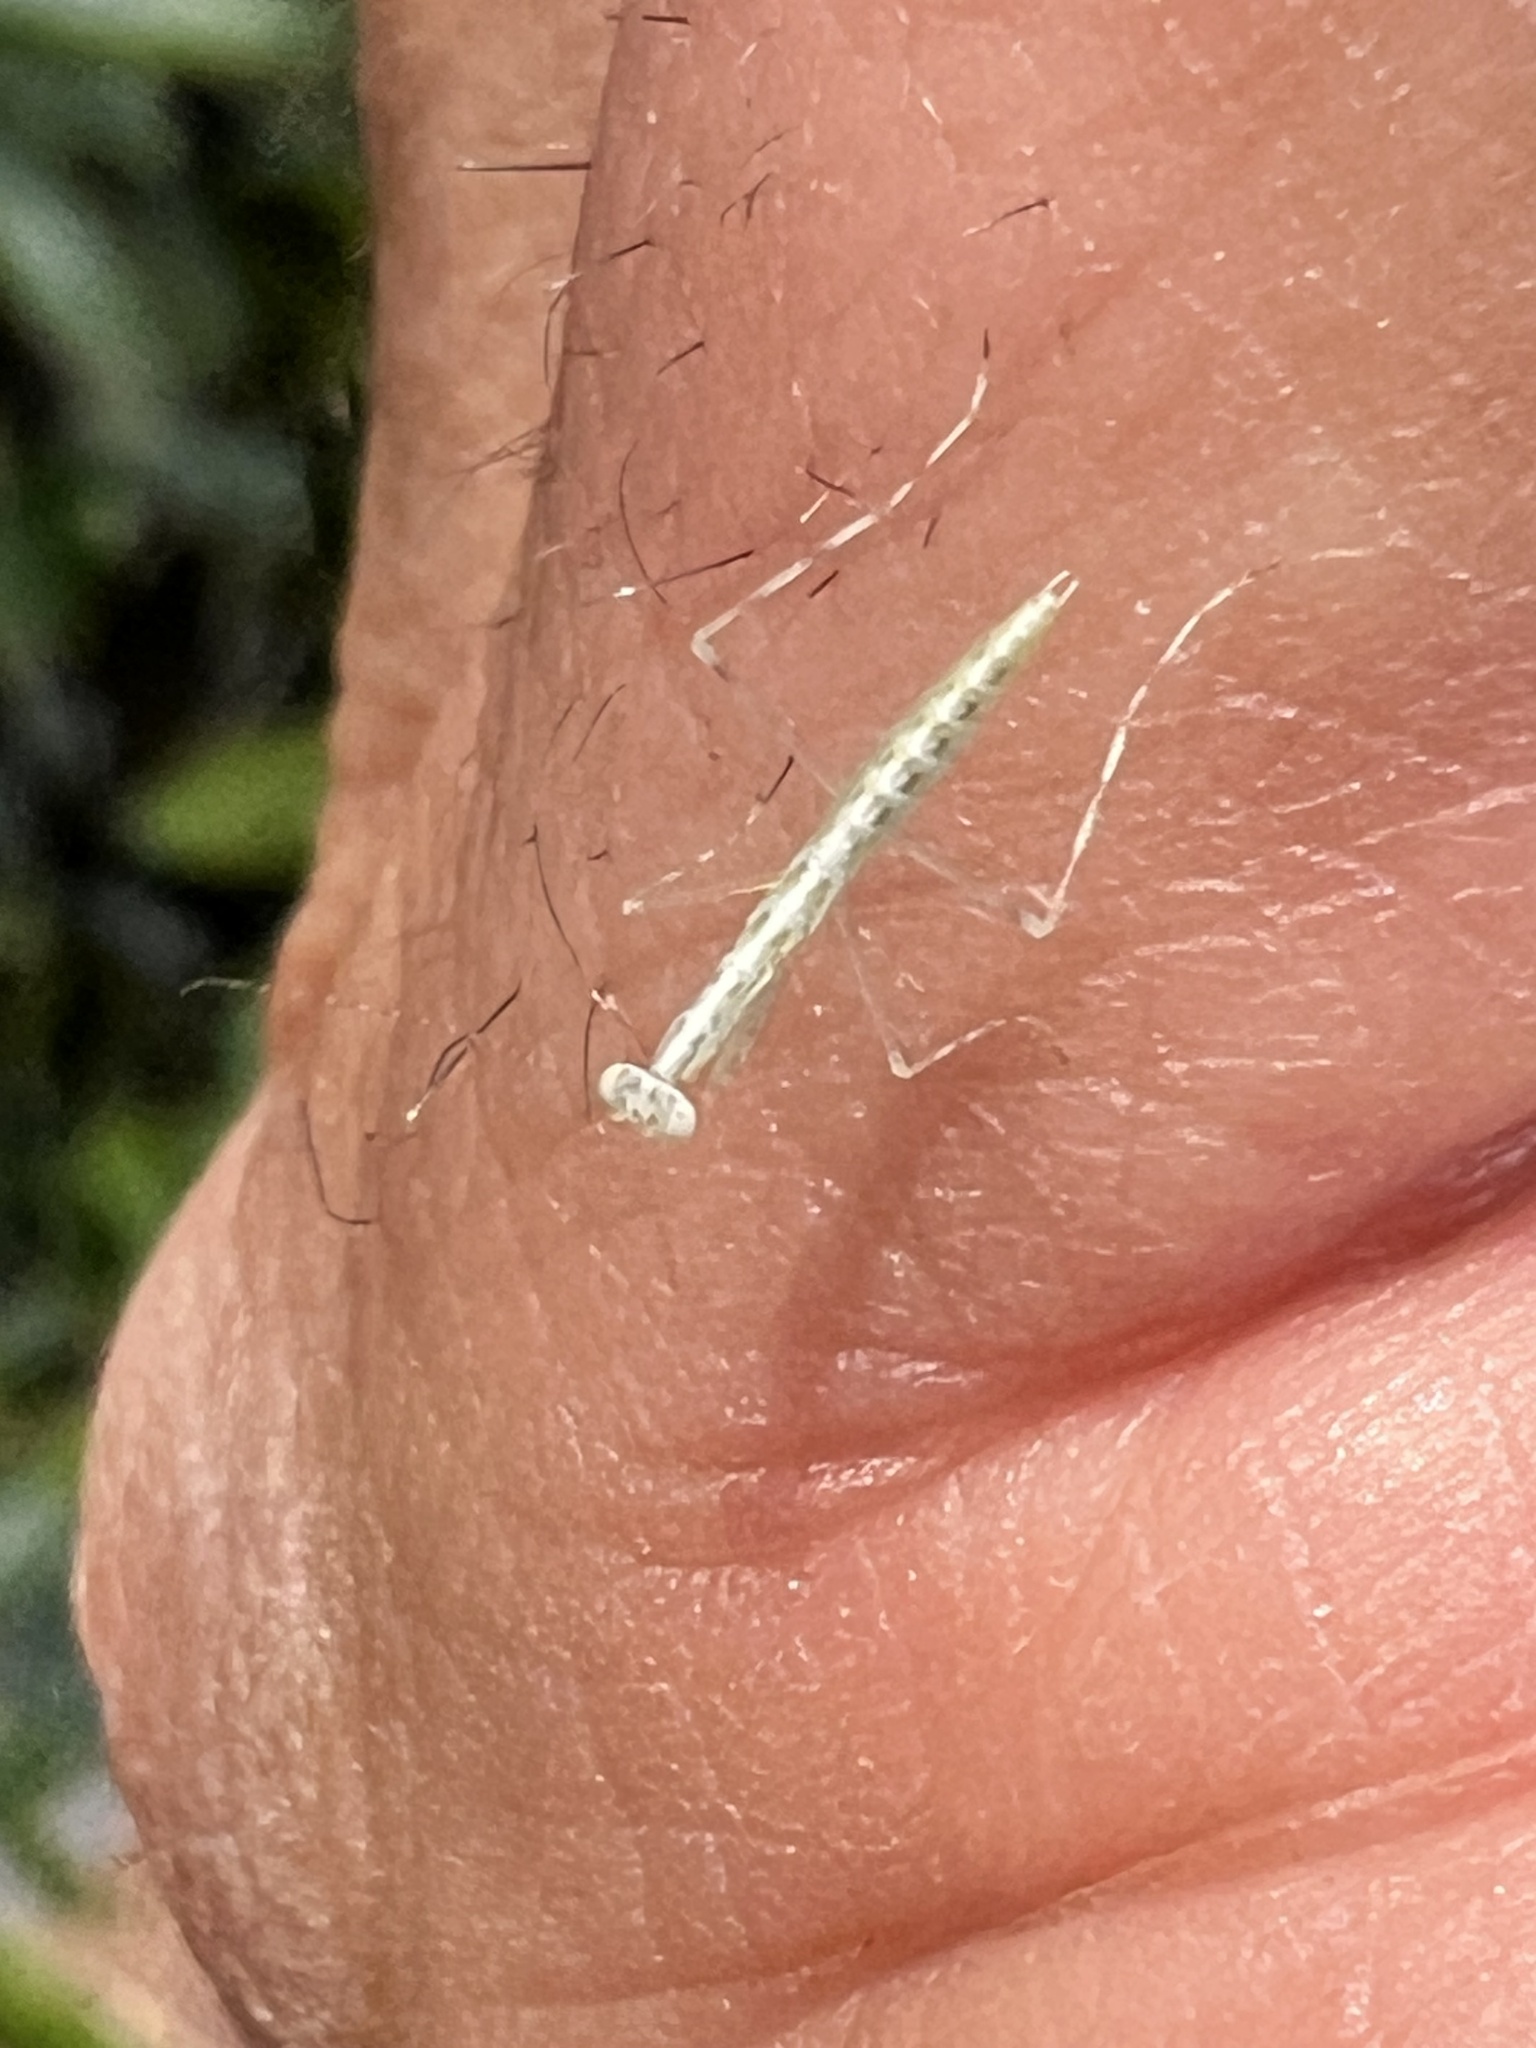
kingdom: Animalia
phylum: Arthropoda
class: Insecta
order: Mantodea
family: Nanomantidae
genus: Kongobatha
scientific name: Kongobatha diademata
